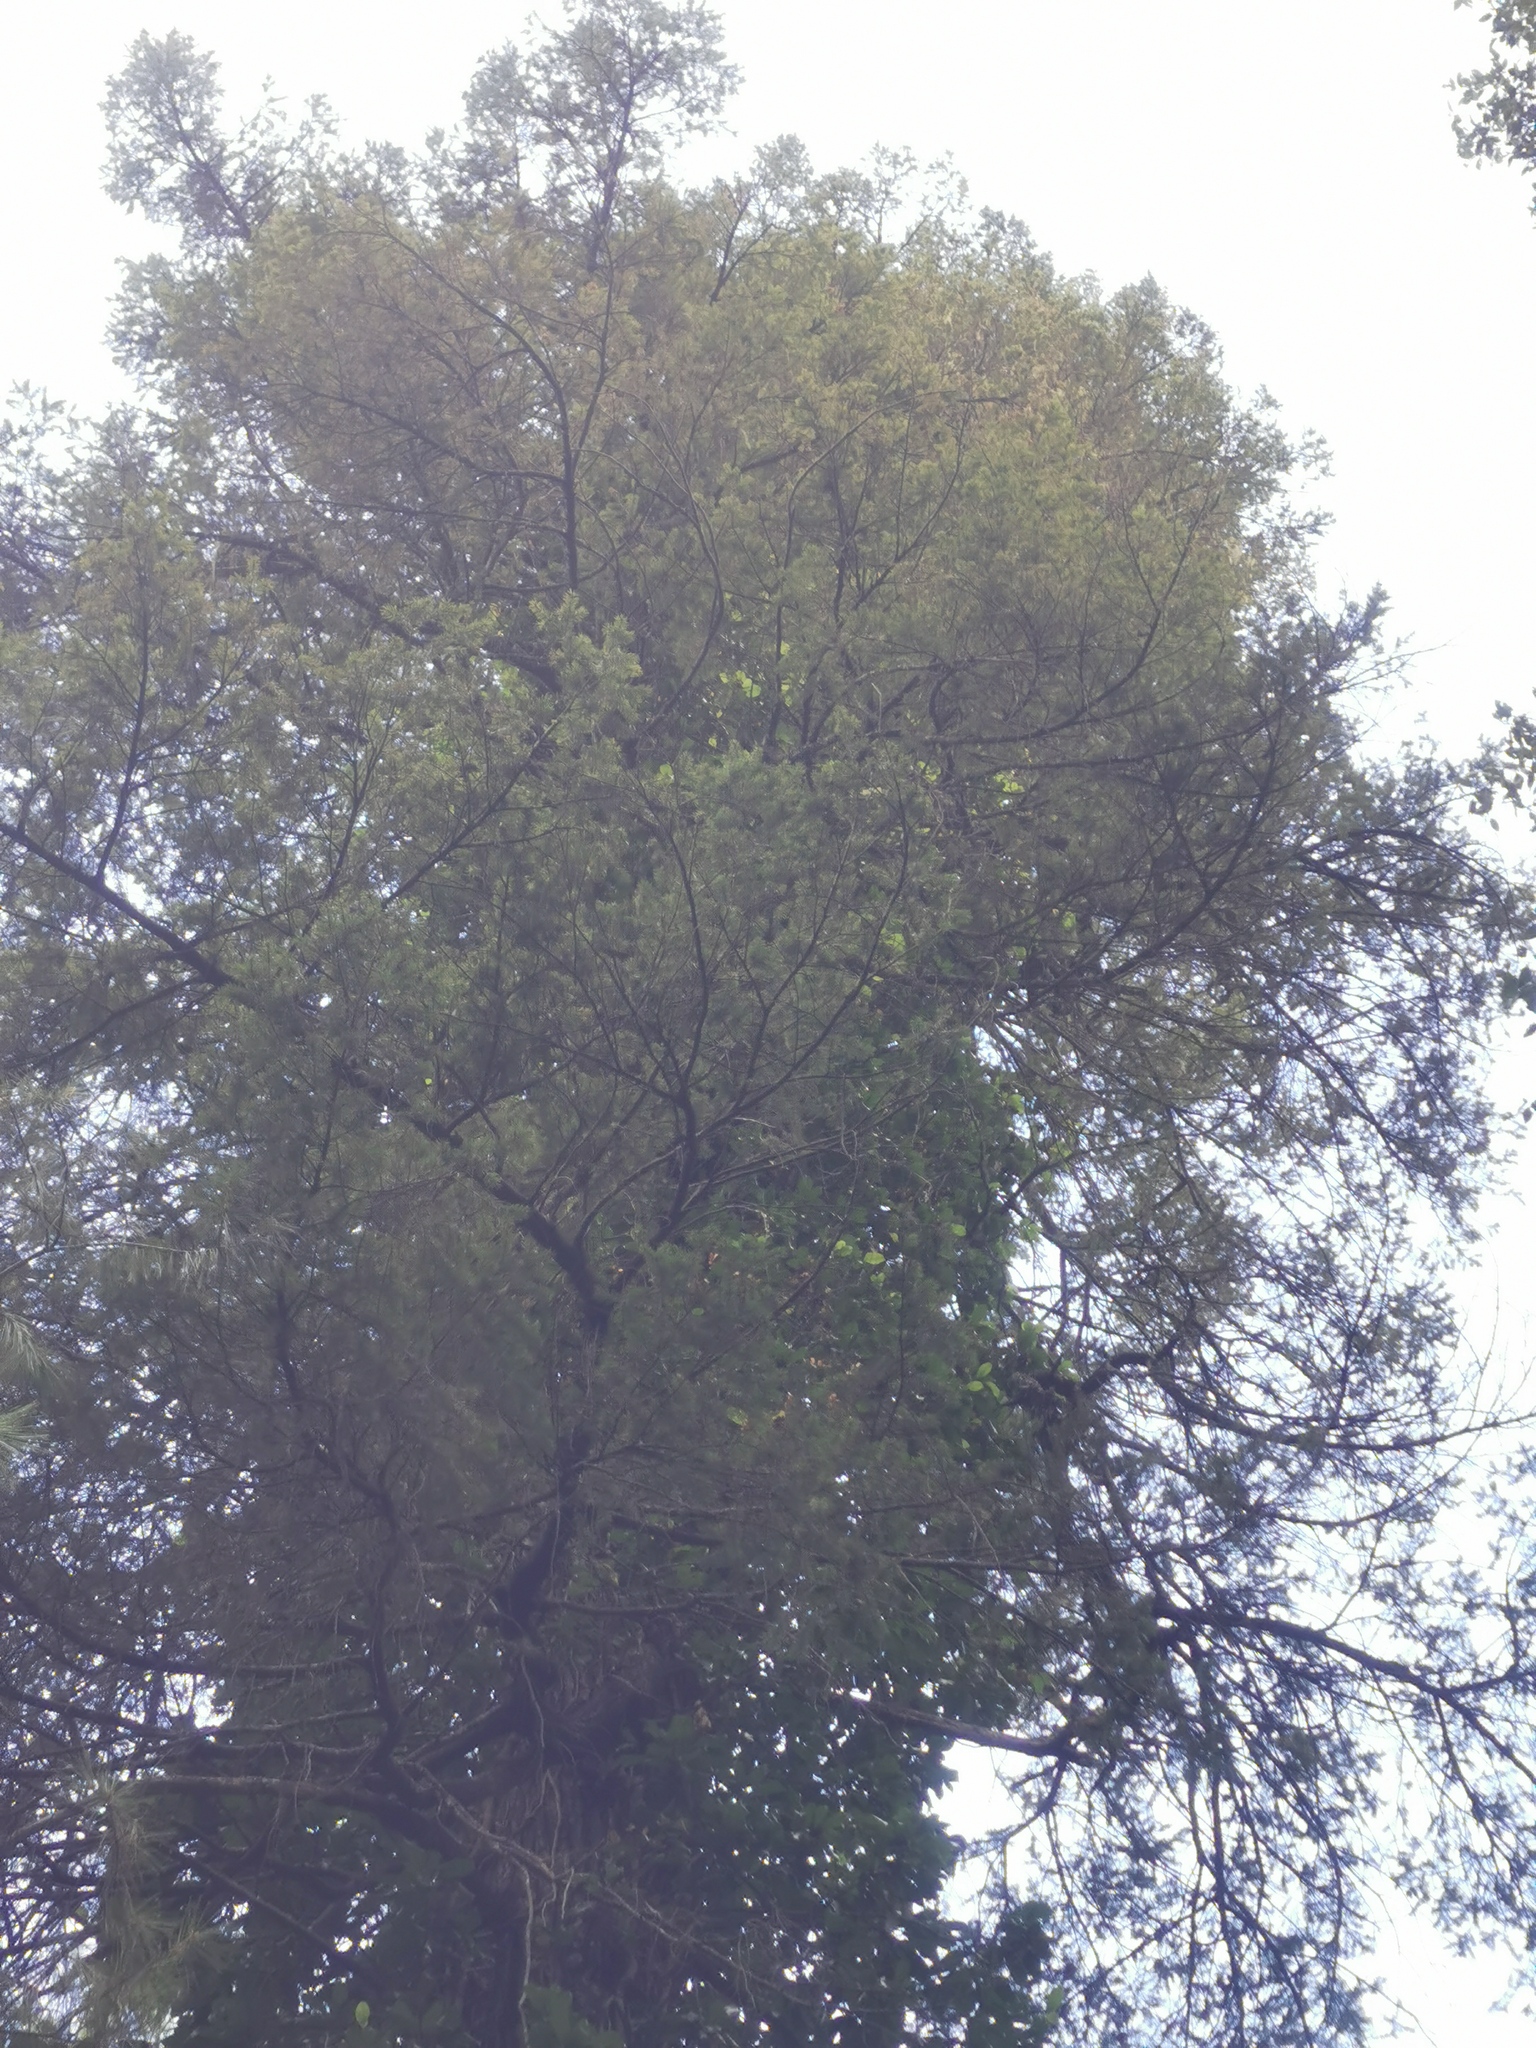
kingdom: Plantae
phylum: Tracheophyta
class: Pinopsida
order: Pinales
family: Pinaceae
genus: Pseudotsuga
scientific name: Pseudotsuga menziesii
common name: Douglas fir
